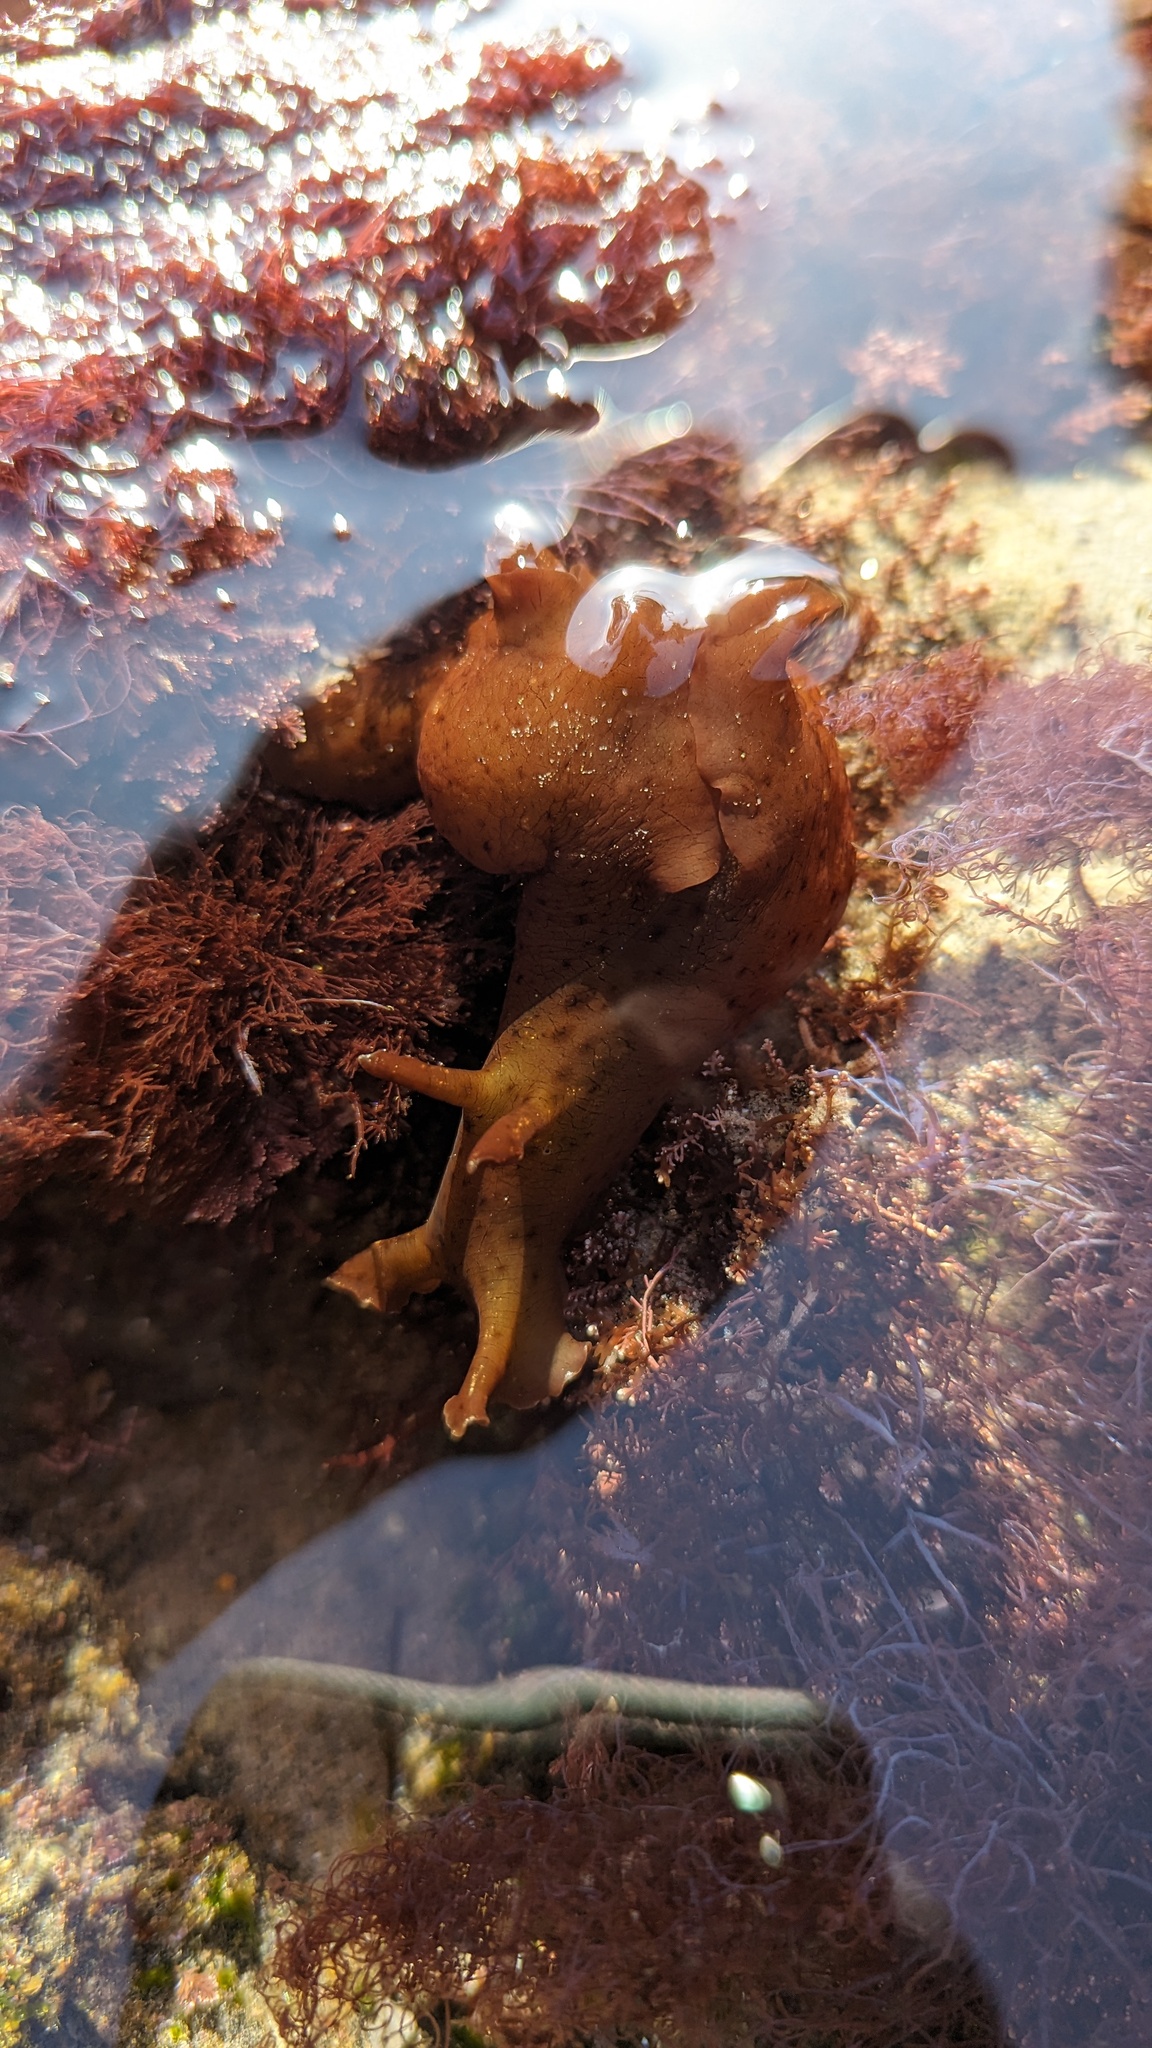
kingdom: Animalia
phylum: Mollusca
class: Gastropoda
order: Aplysiida
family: Aplysiidae
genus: Aplysia
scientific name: Aplysia californica
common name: California seahare
